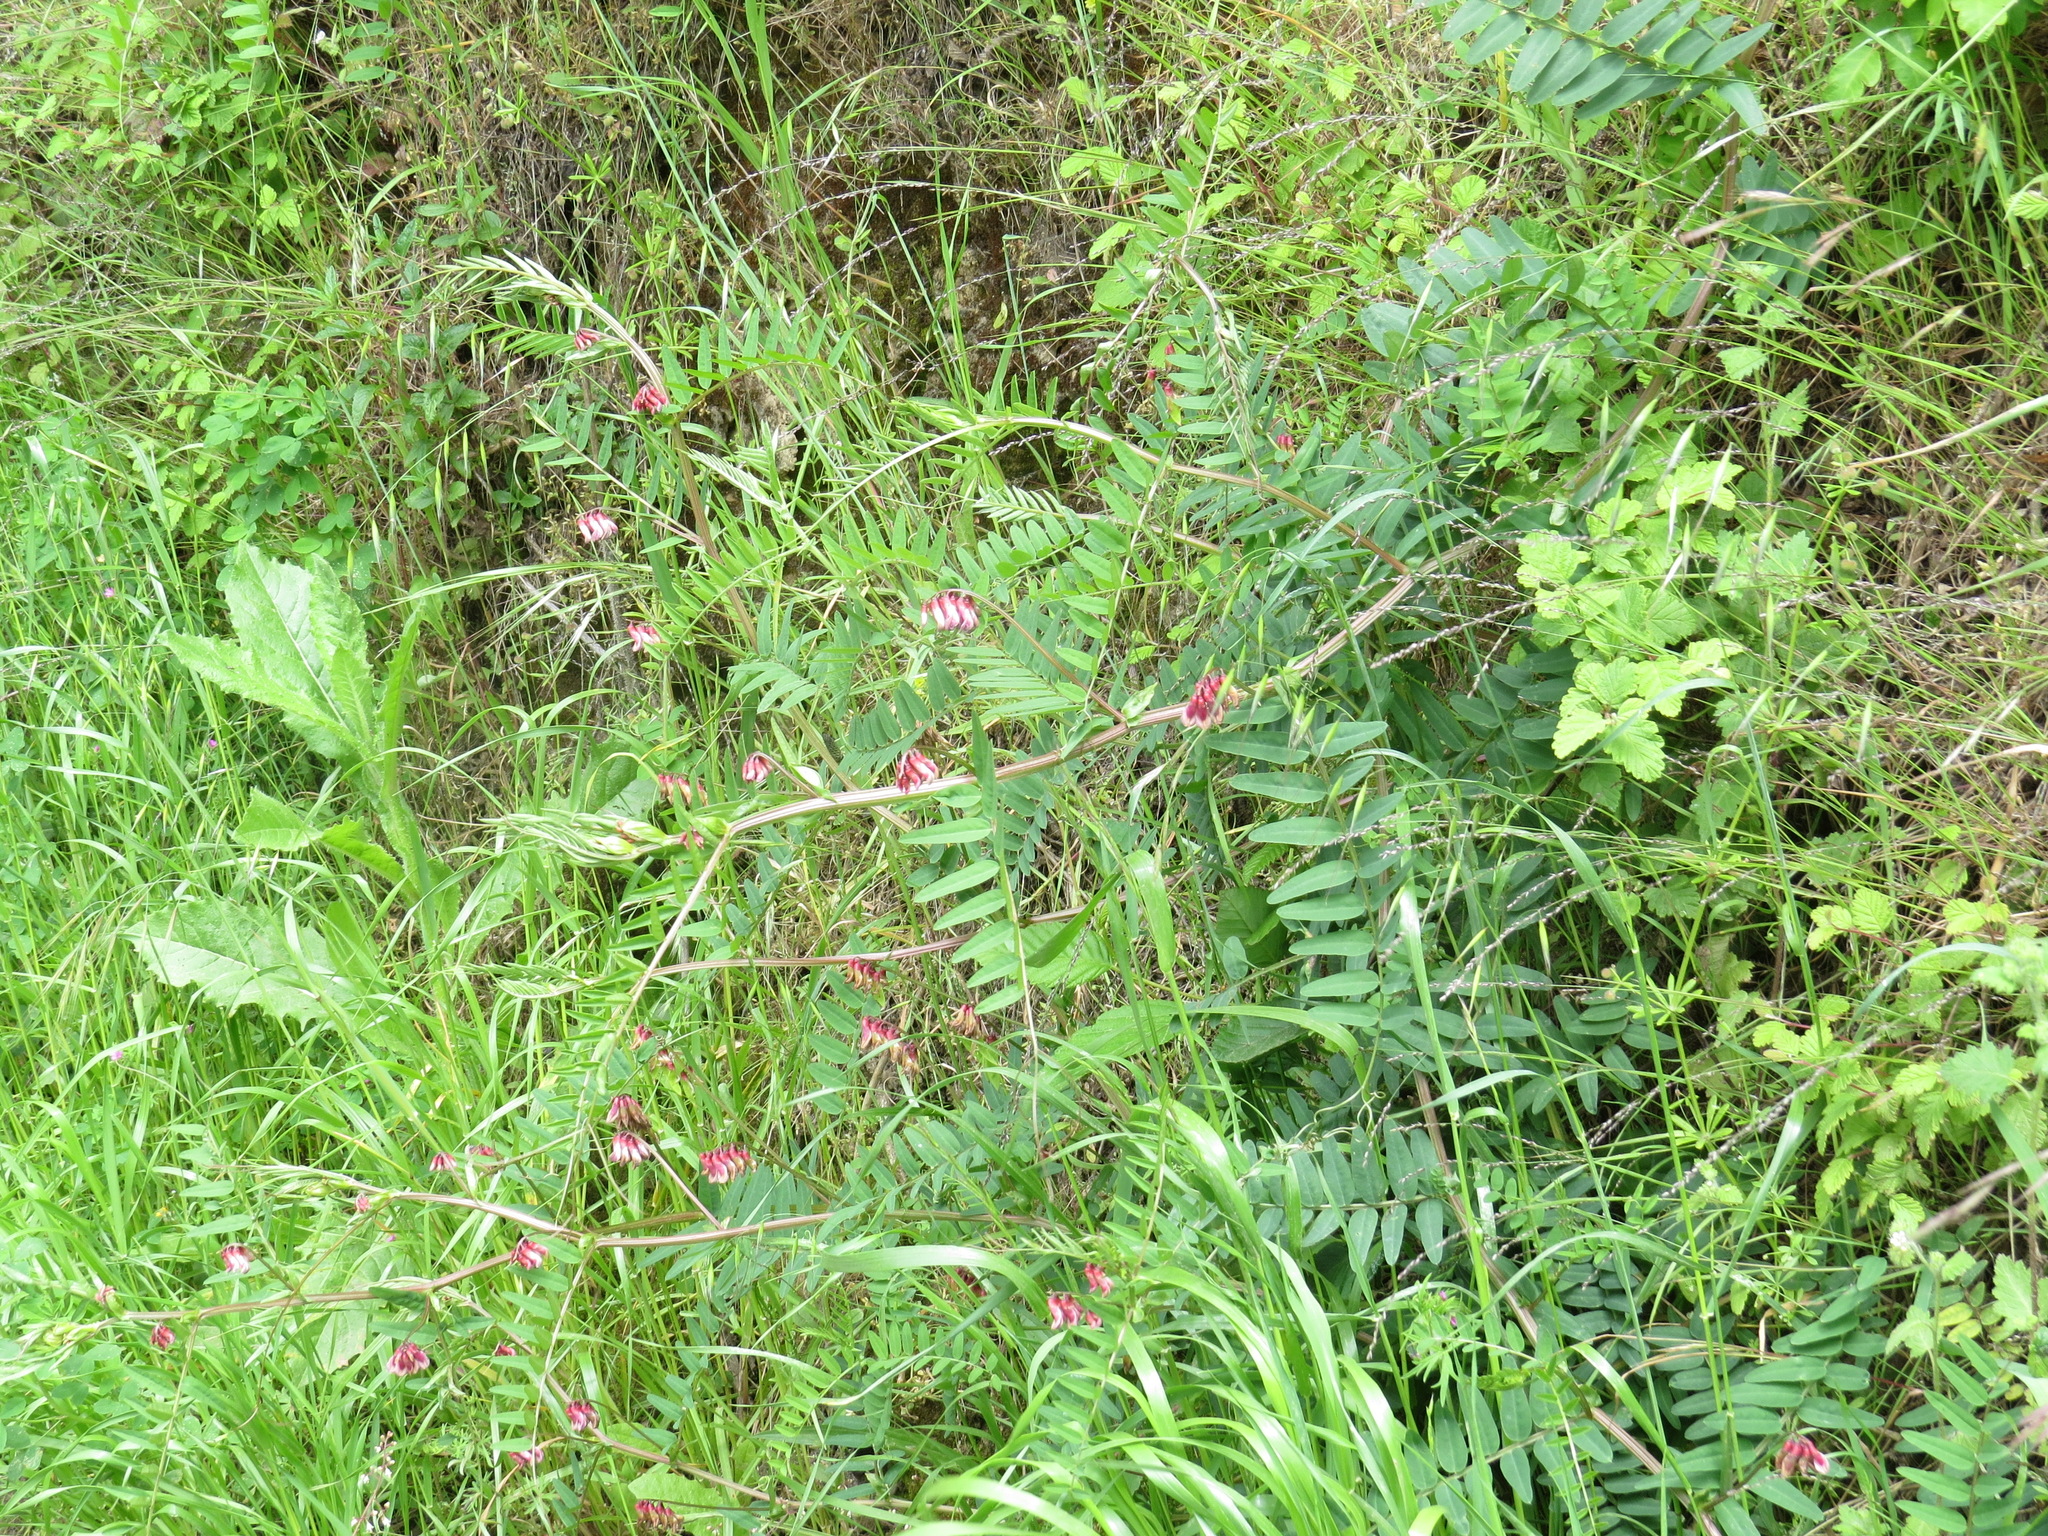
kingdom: Plantae
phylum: Tracheophyta
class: Magnoliopsida
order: Fabales
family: Fabaceae
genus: Vicia
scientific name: Vicia
